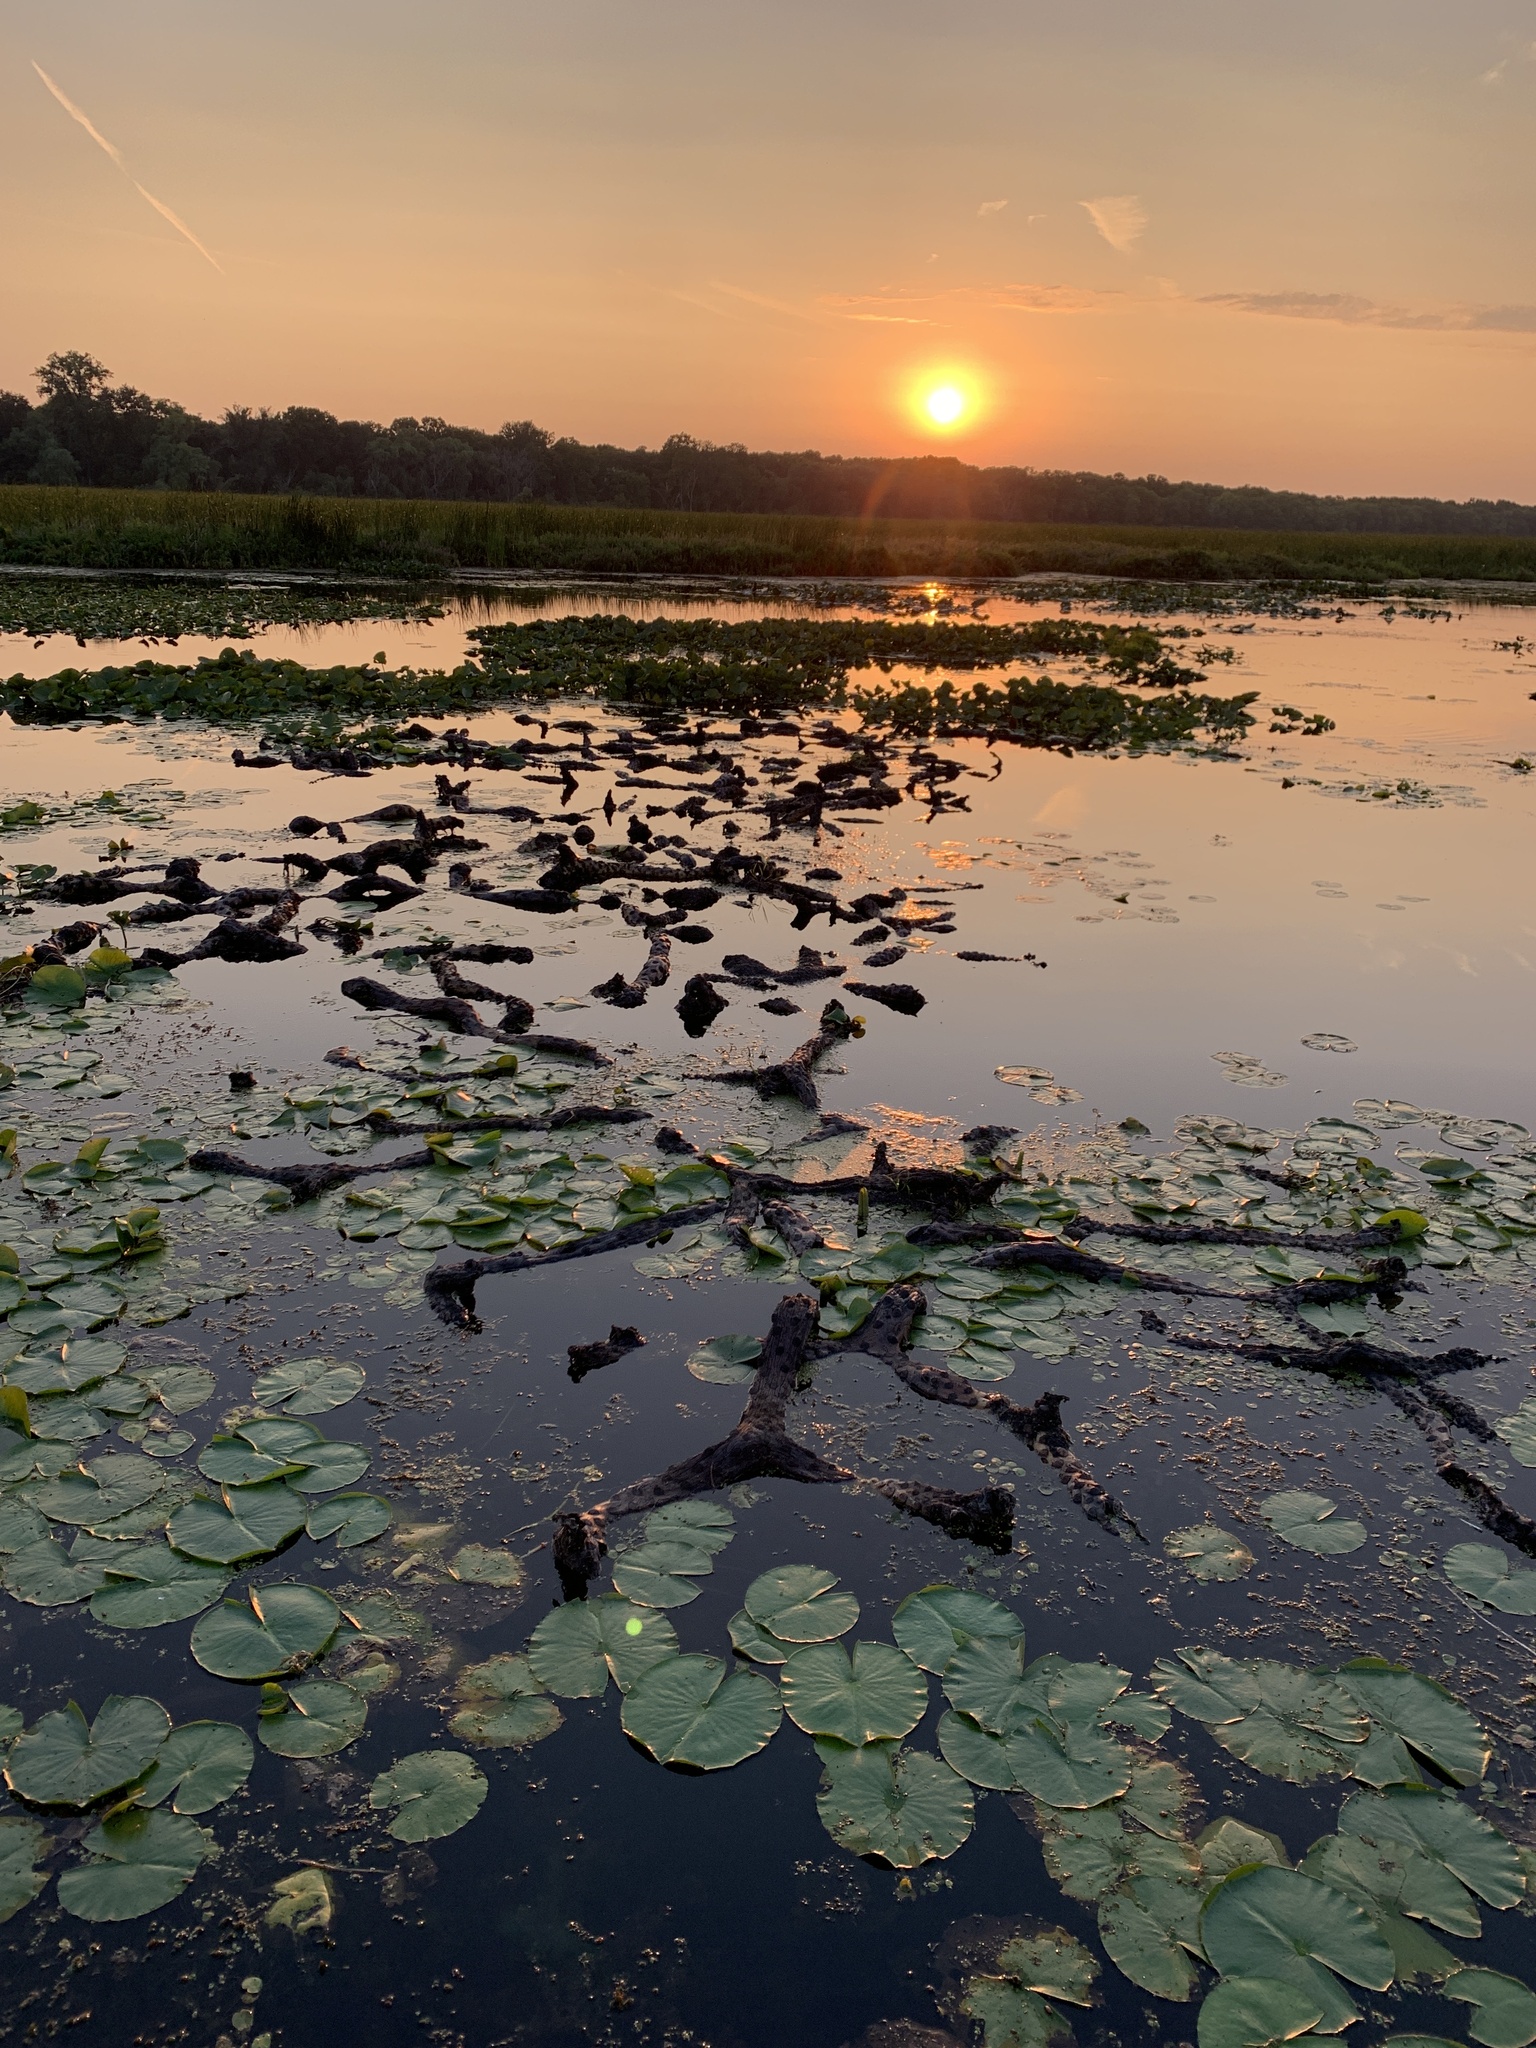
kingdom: Plantae
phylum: Tracheophyta
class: Magnoliopsida
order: Nymphaeales
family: Nymphaeaceae
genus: Nymphaea
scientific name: Nymphaea odorata
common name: Fragrant water-lily
